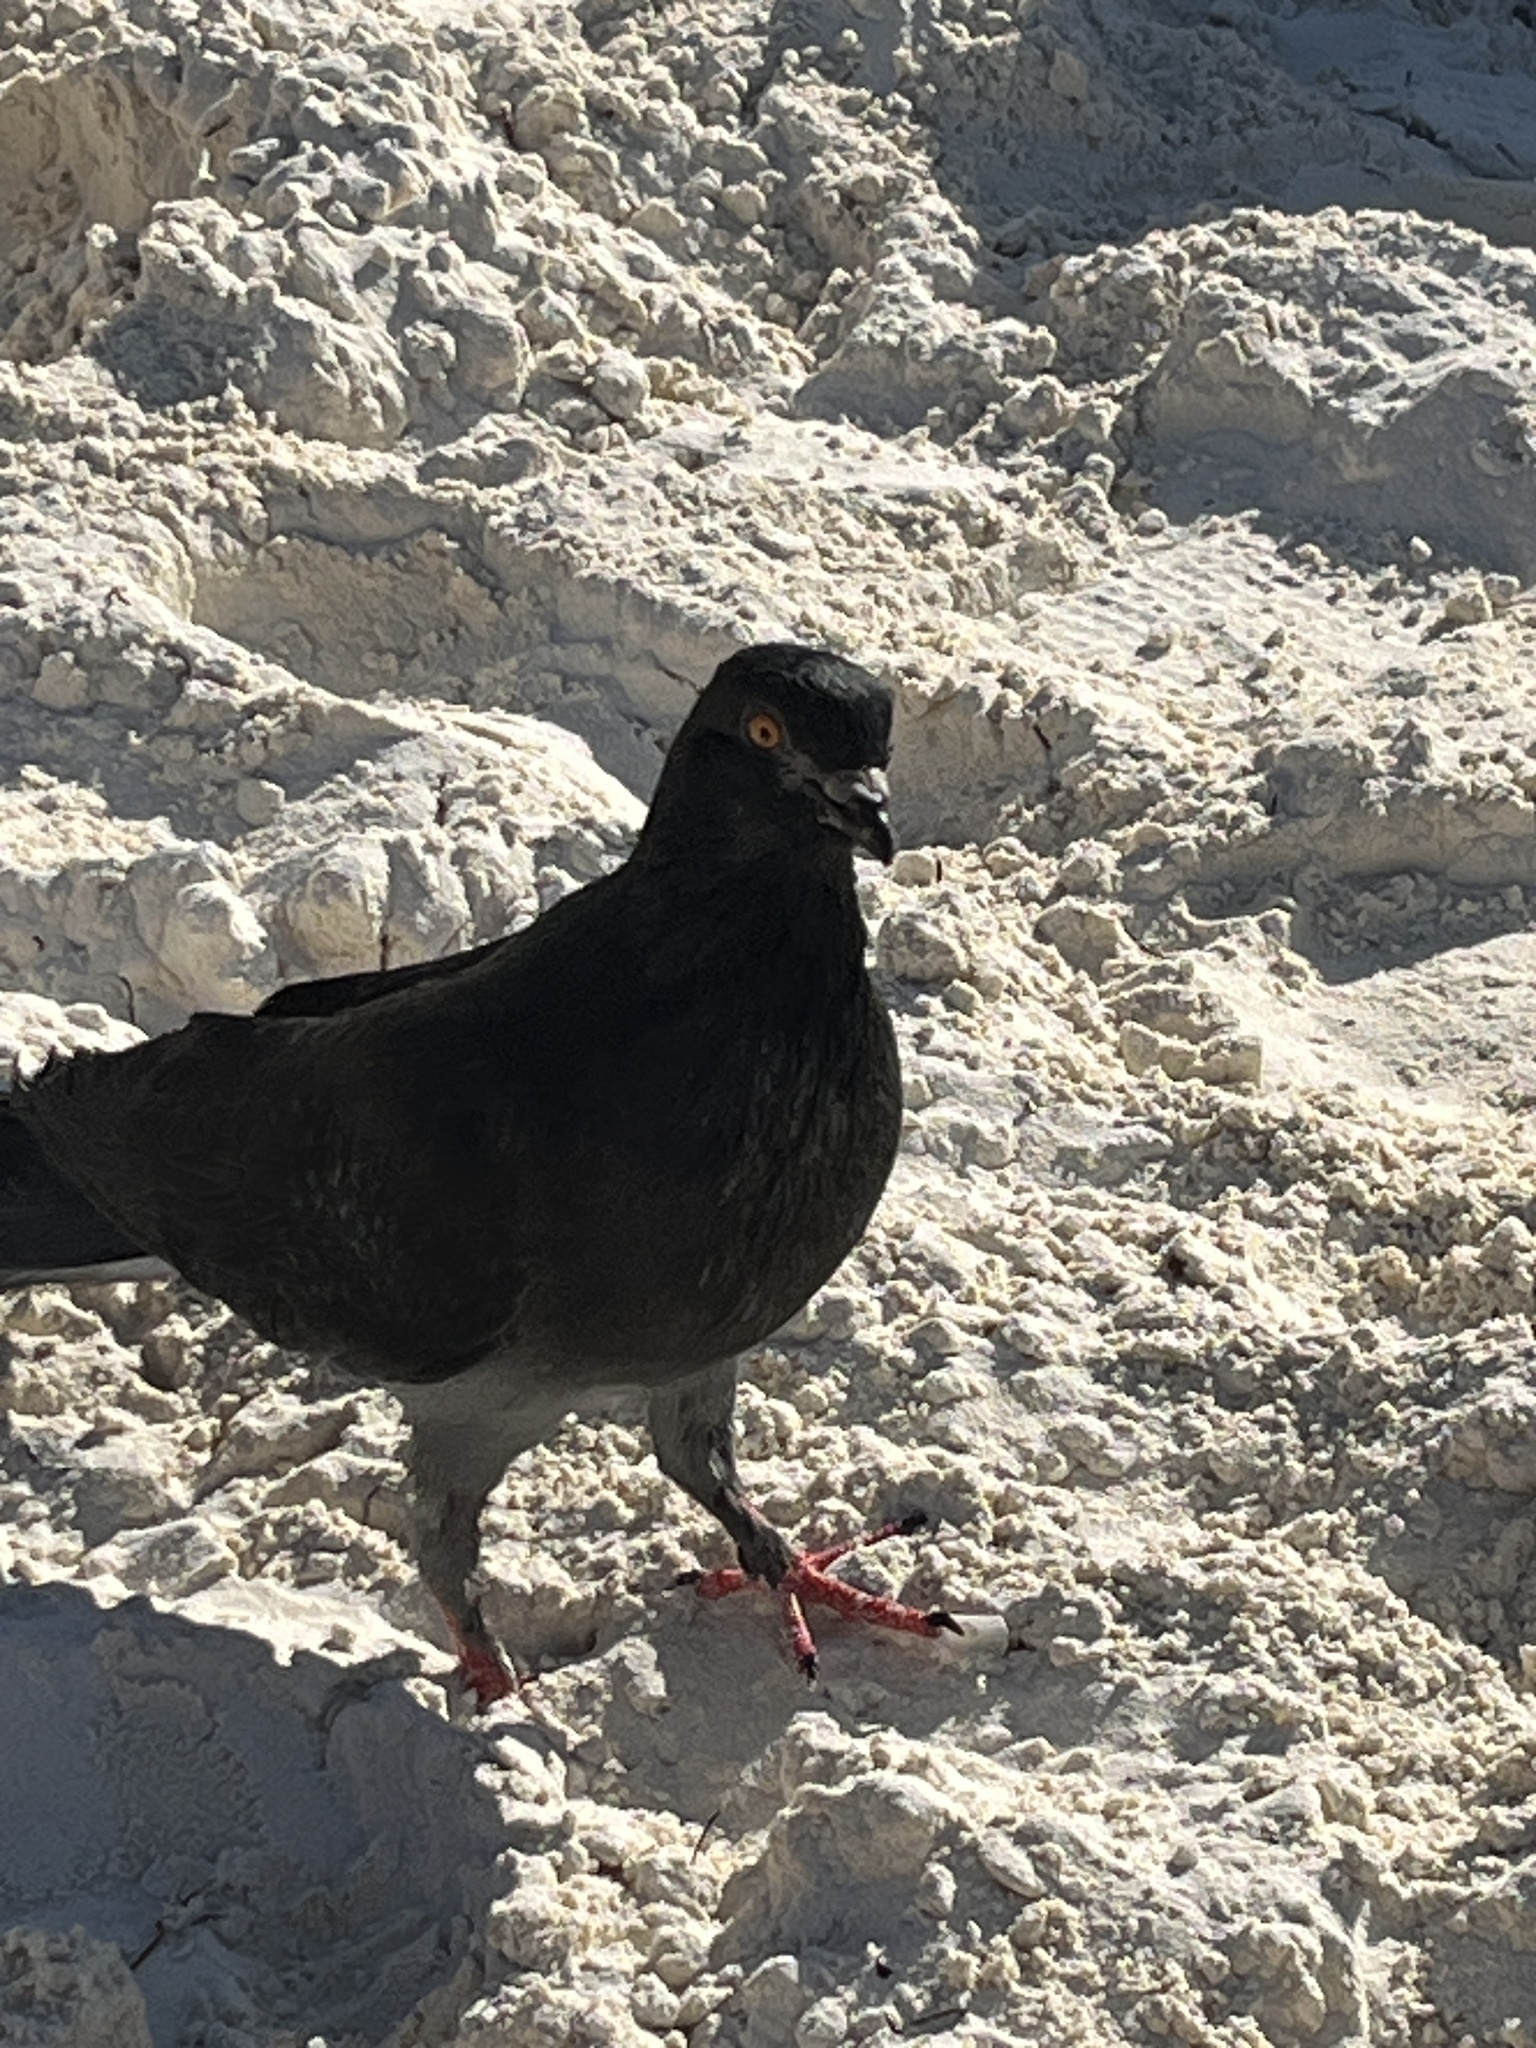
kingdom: Animalia
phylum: Chordata
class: Aves
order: Columbiformes
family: Columbidae
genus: Columba
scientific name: Columba livia
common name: Rock pigeon
